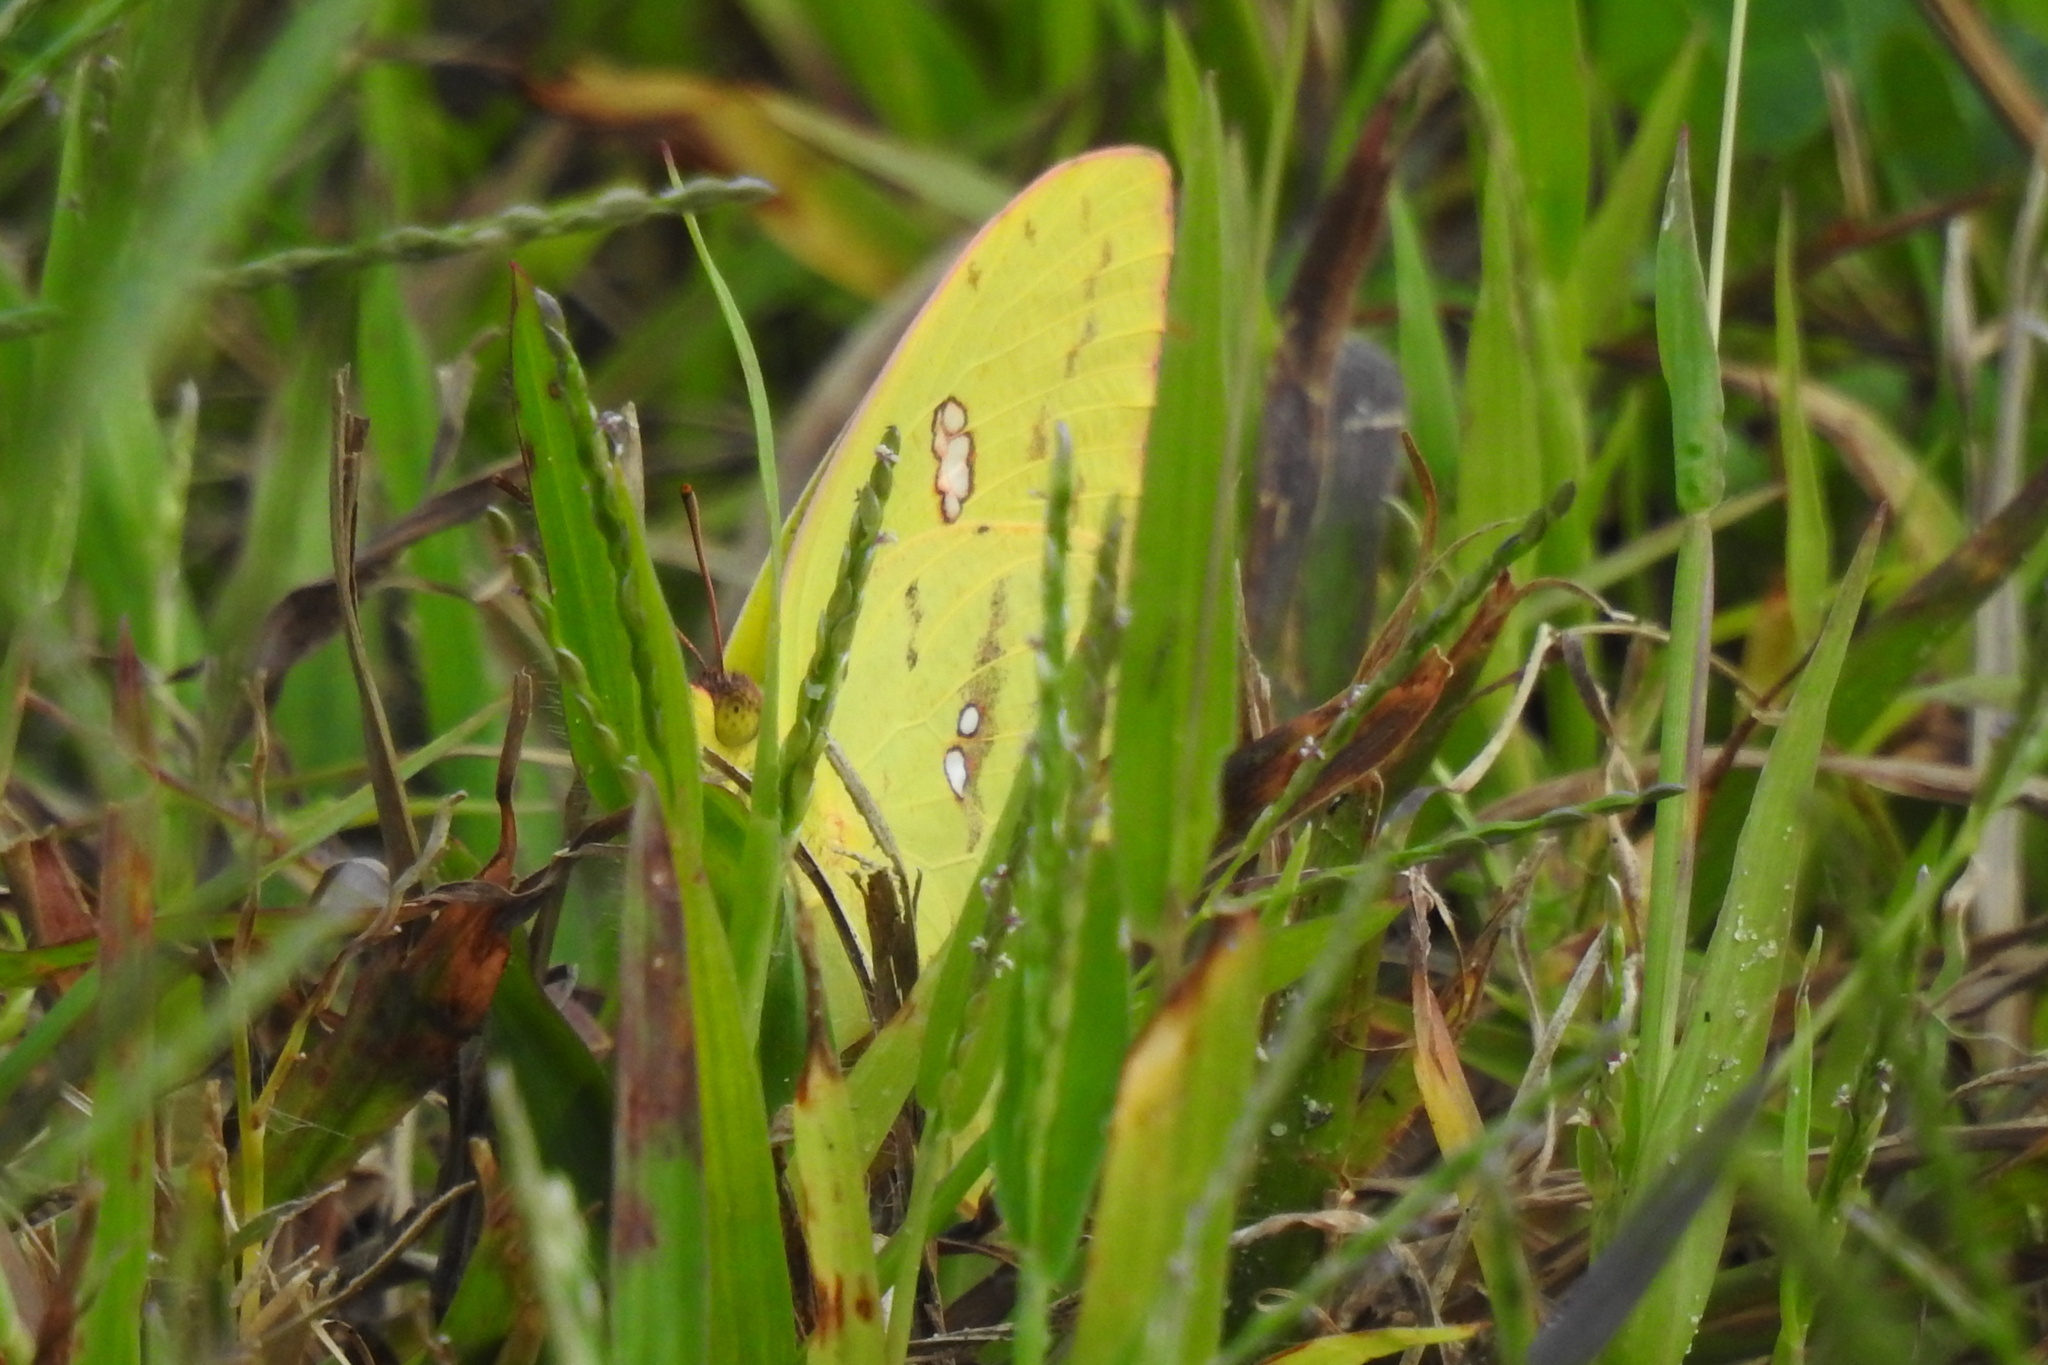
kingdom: Animalia
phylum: Arthropoda
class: Insecta
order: Lepidoptera
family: Pieridae
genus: Phoebis
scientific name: Phoebis sennae
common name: Cloudless sulphur
